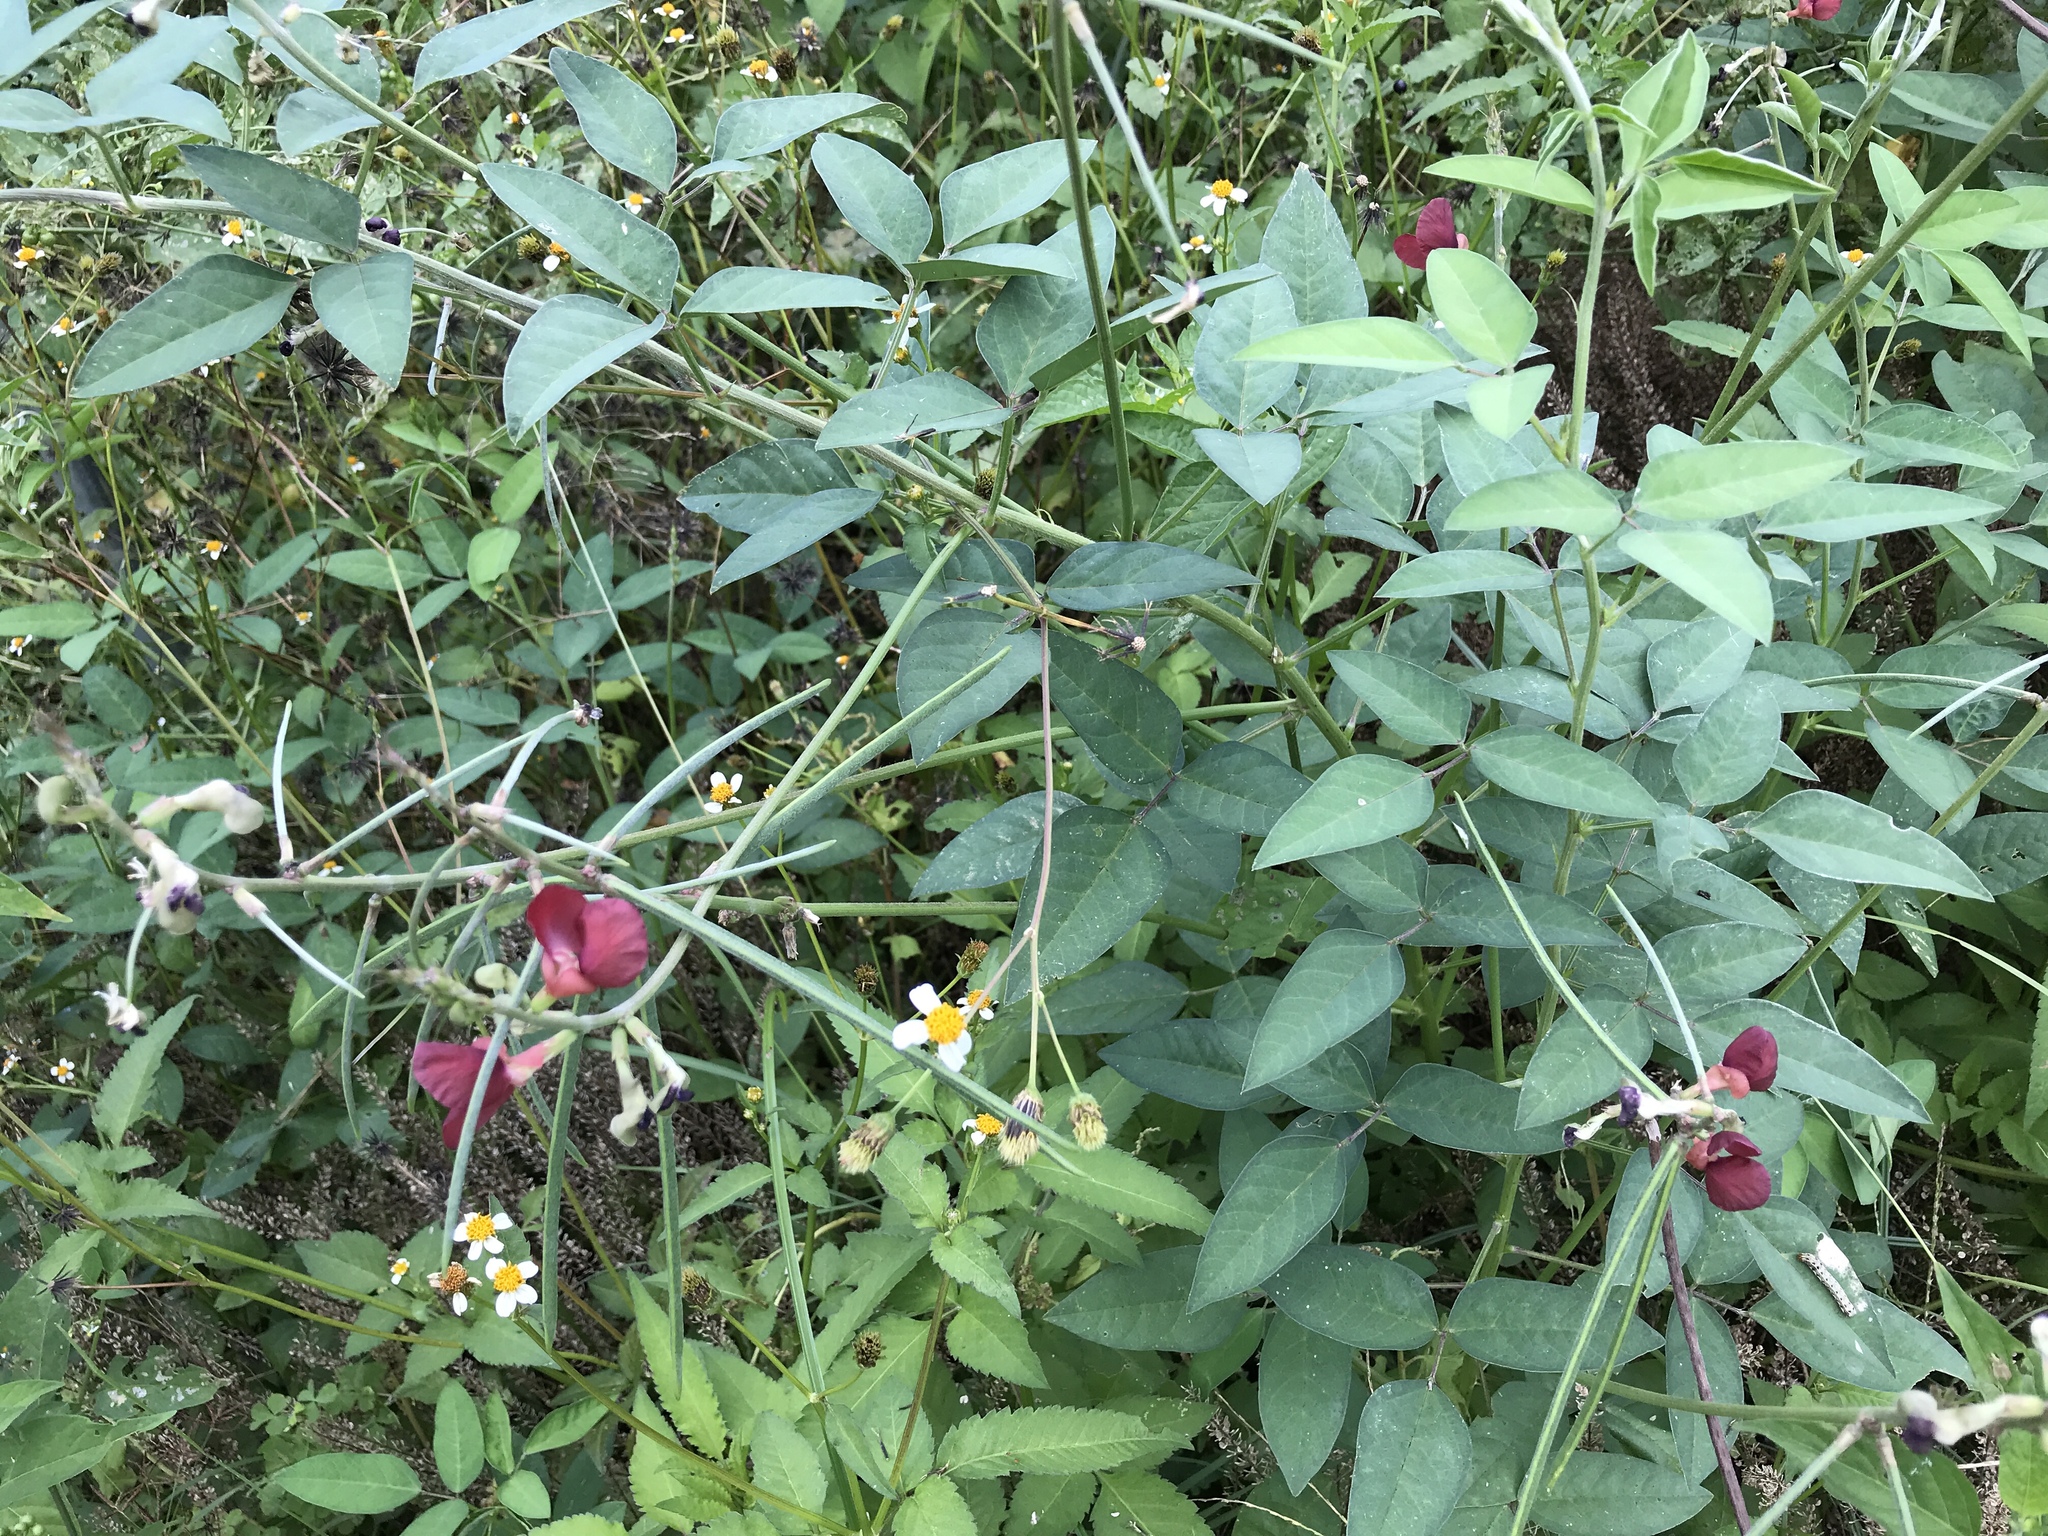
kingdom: Plantae
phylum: Tracheophyta
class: Magnoliopsida
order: Fabales
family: Fabaceae
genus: Macroptilium
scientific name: Macroptilium lathyroides
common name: Wild bushbean
